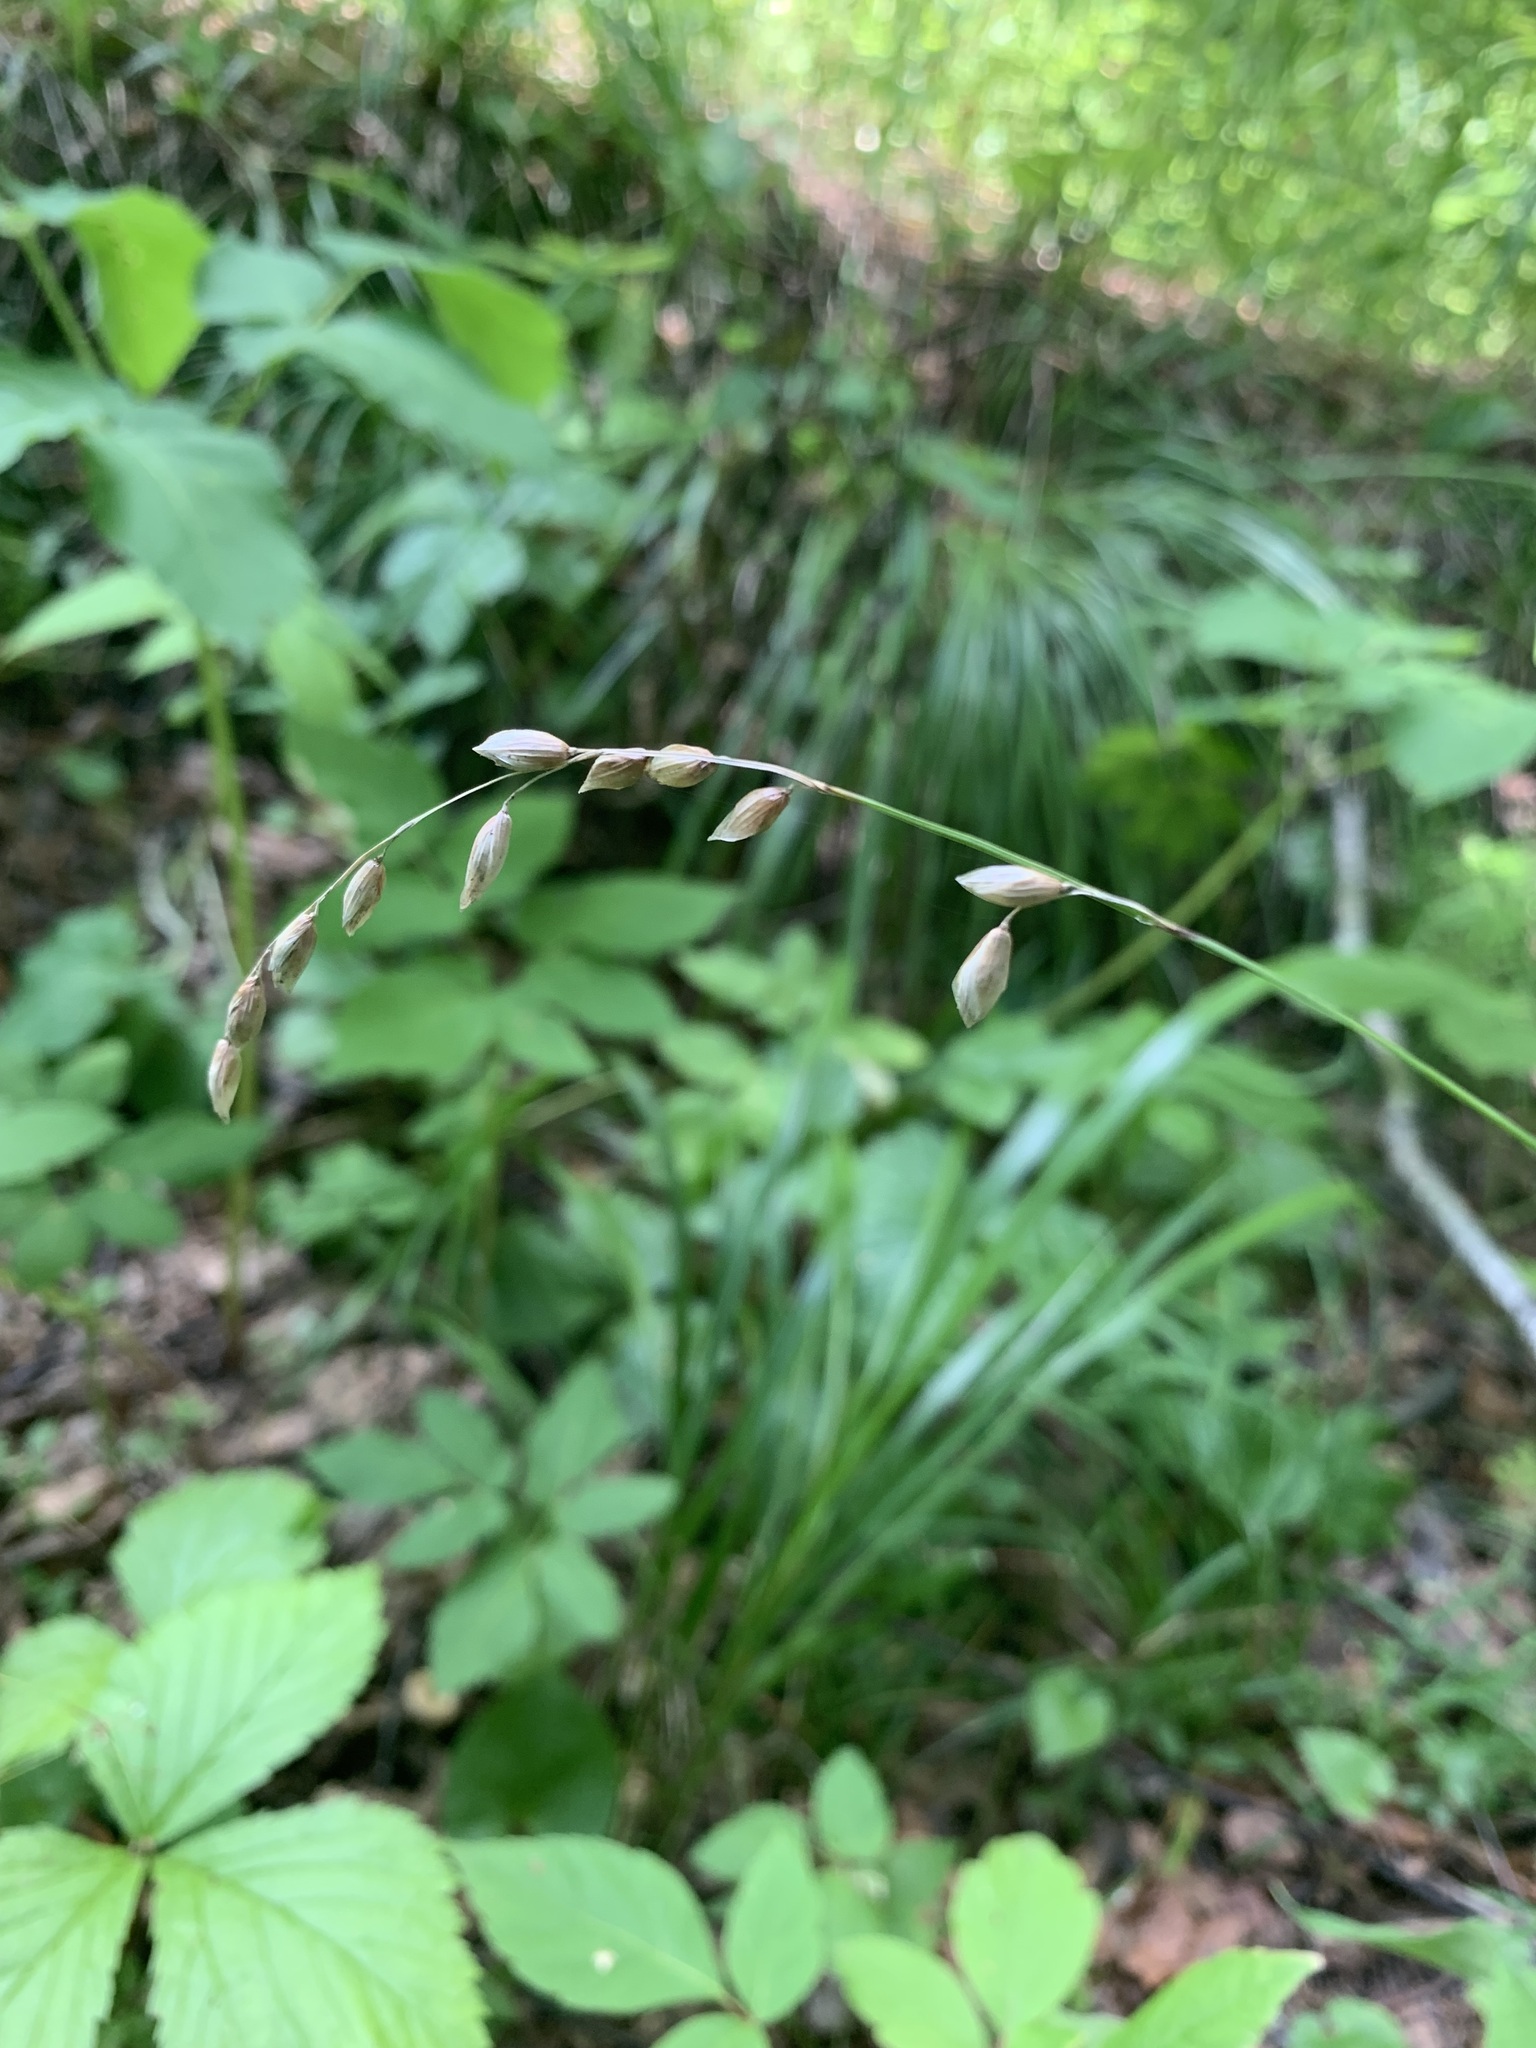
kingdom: Plantae
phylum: Tracheophyta
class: Liliopsida
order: Poales
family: Poaceae
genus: Melica
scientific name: Melica nutans
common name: Mountain melick
